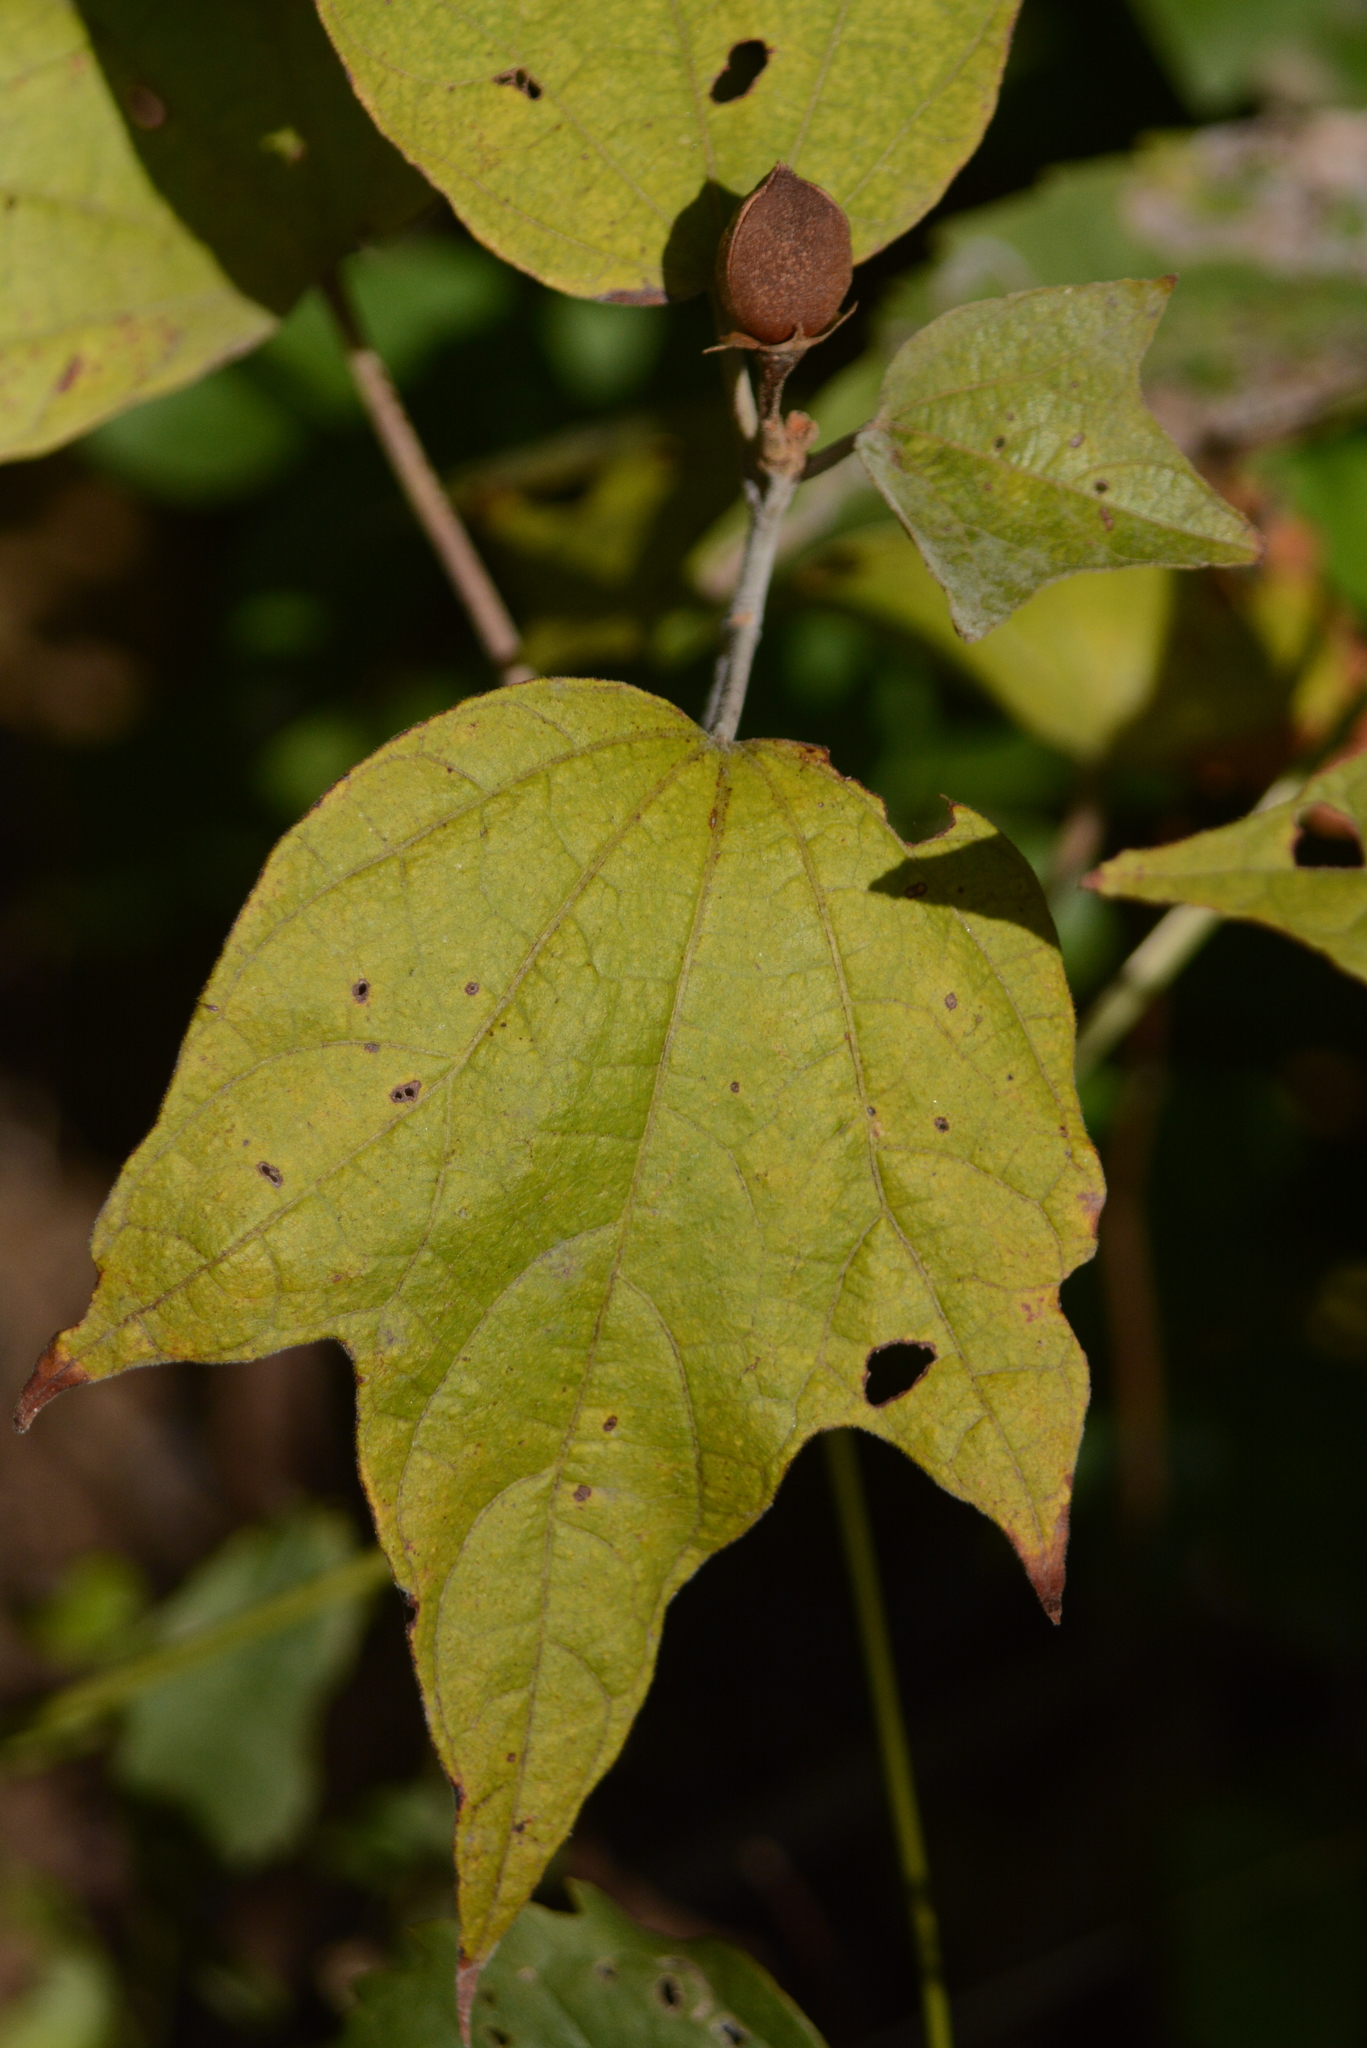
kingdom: Plantae
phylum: Tracheophyta
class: Magnoliopsida
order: Malvales
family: Malvaceae
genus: Thespesia
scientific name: Thespesia lampas
